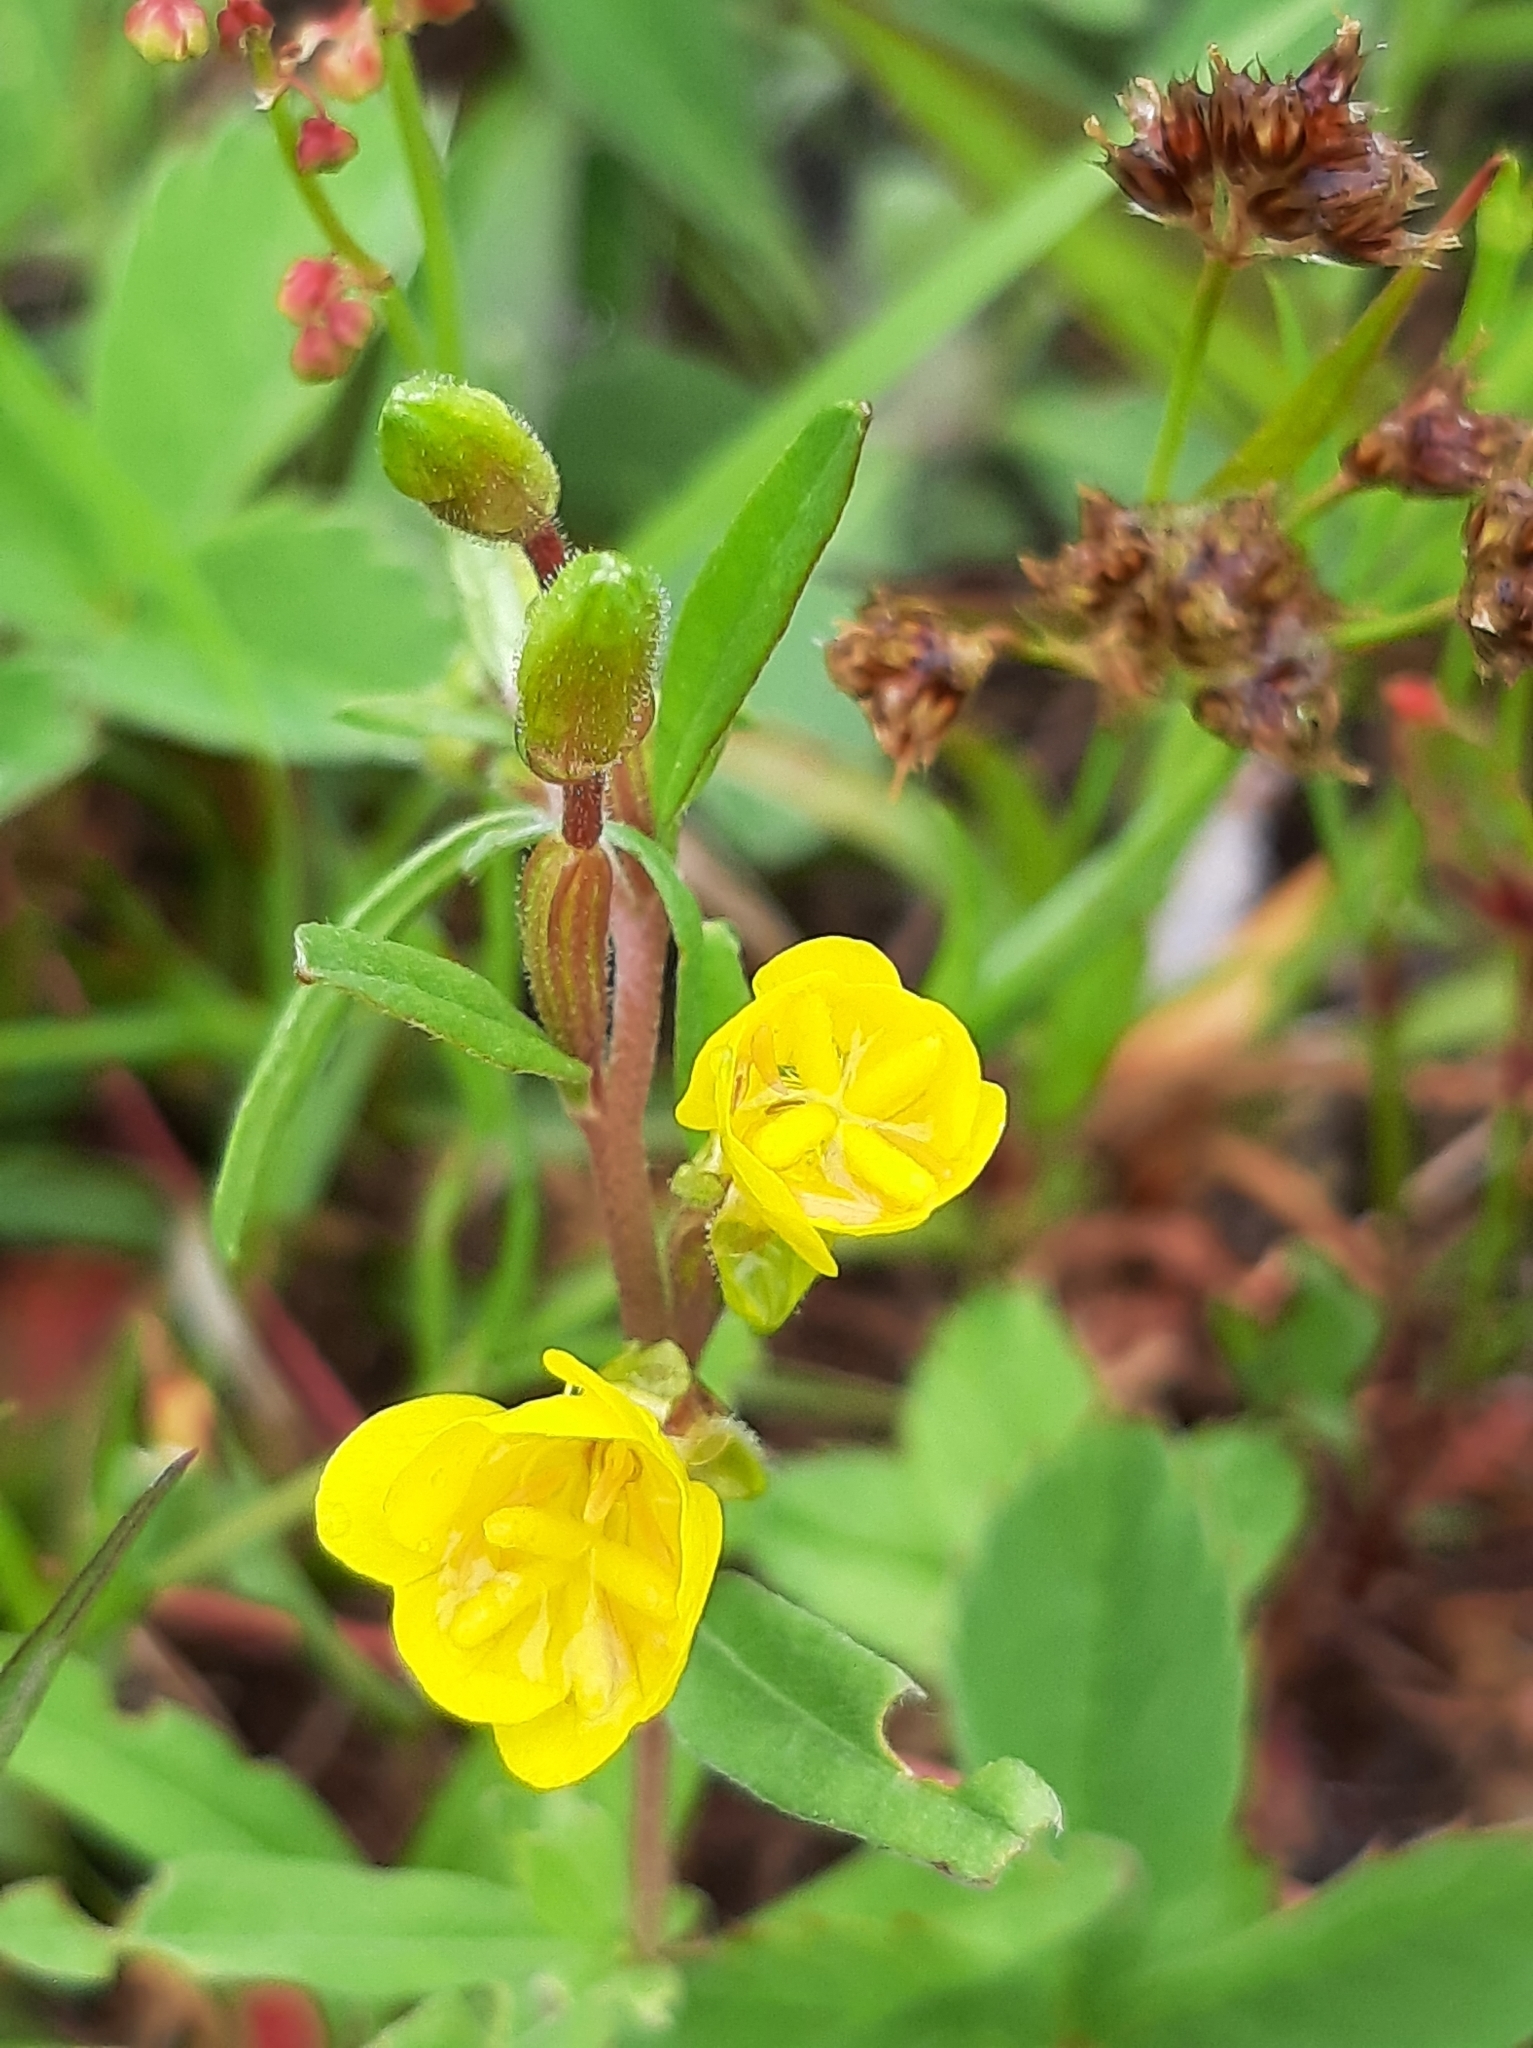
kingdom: Plantae
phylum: Tracheophyta
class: Magnoliopsida
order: Myrtales
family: Onagraceae
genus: Oenothera
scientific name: Oenothera perennis
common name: Small sundrops
